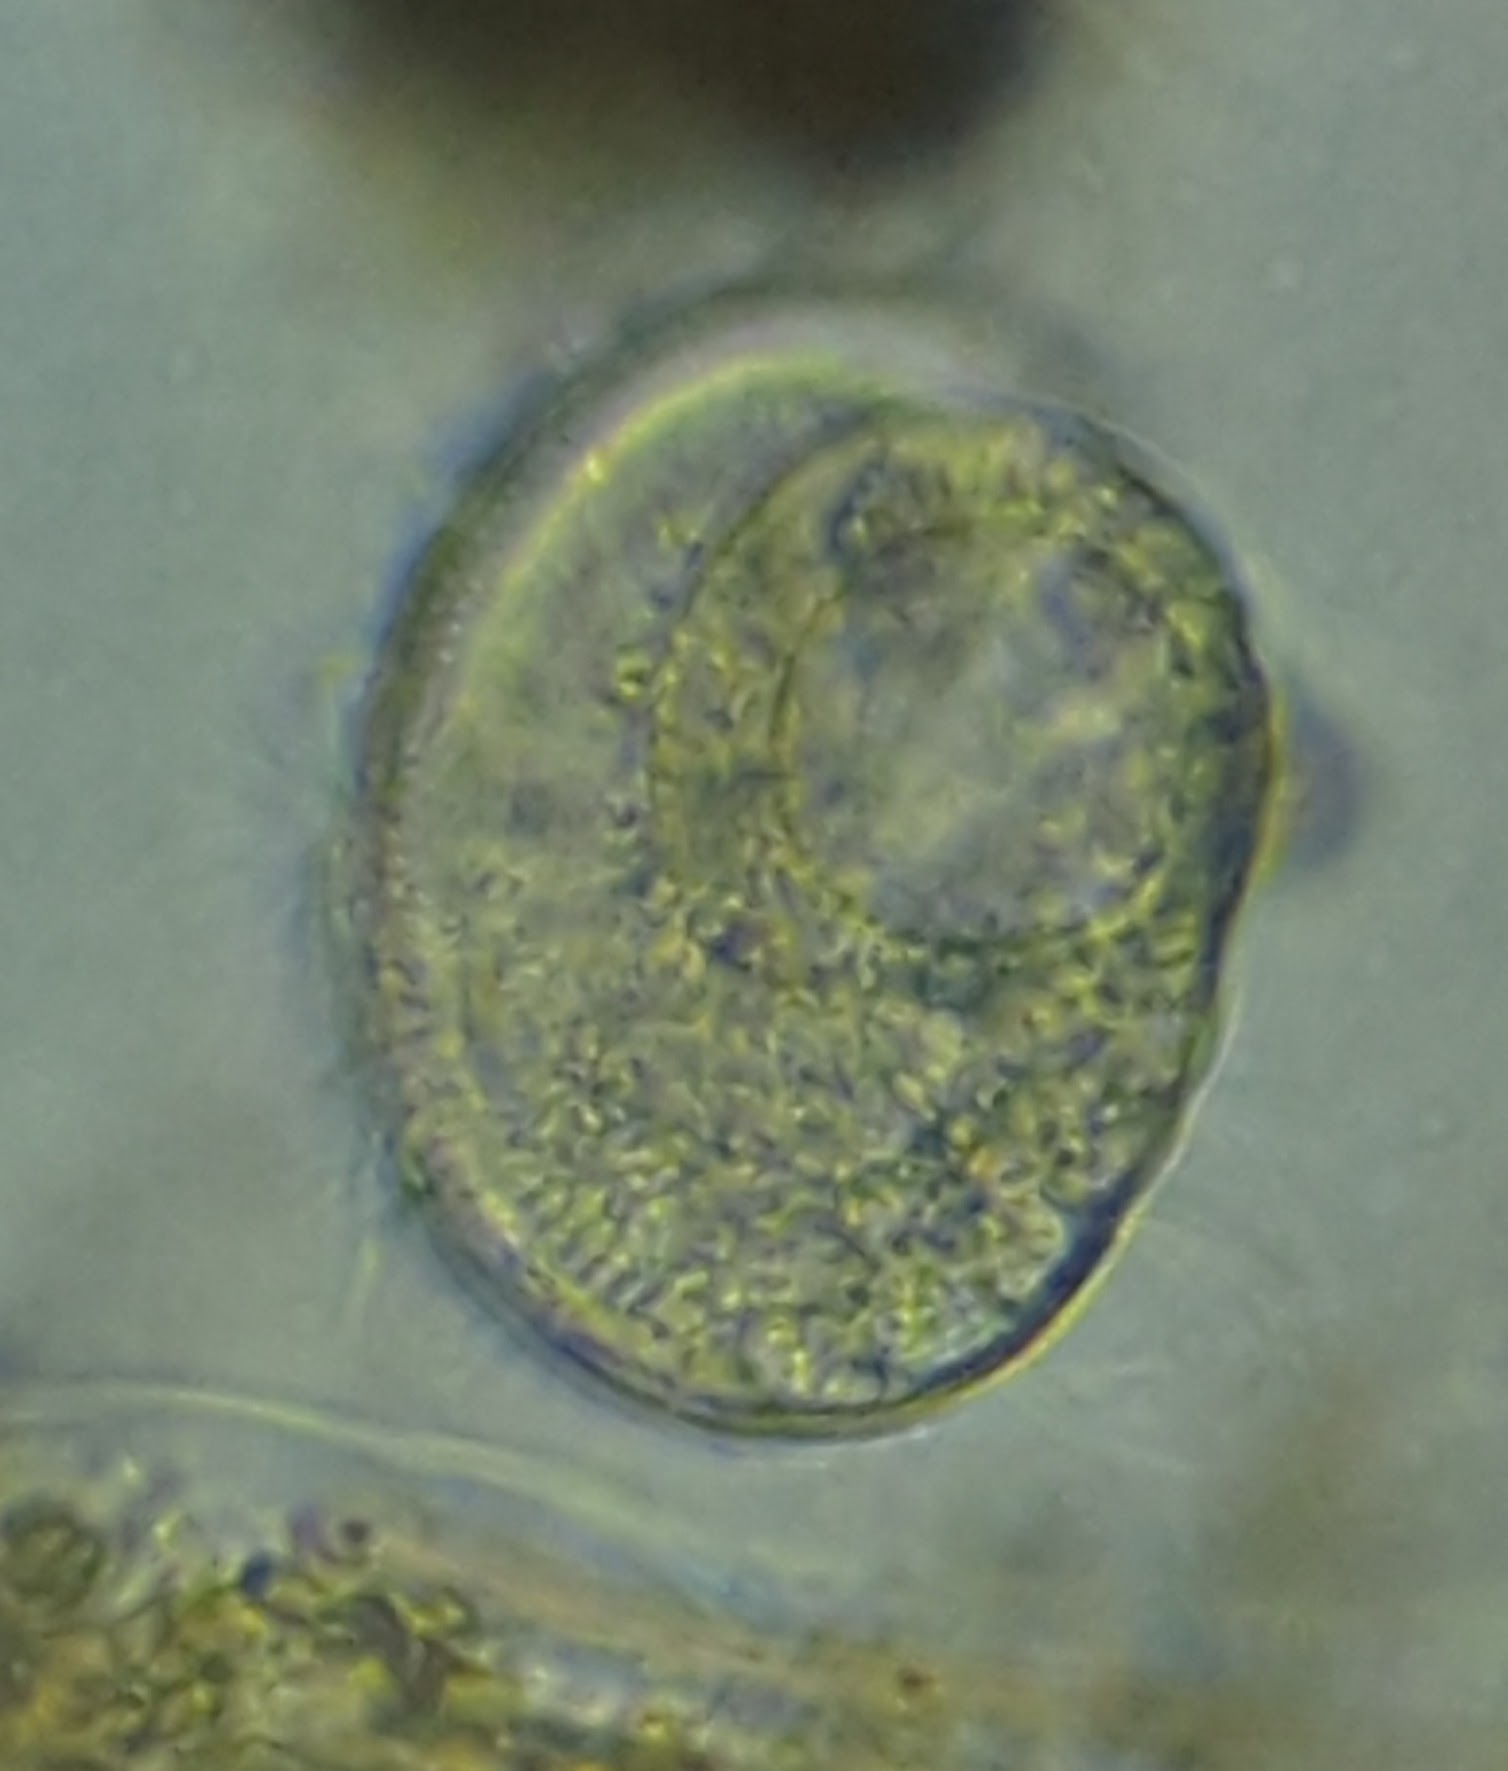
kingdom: Chromista
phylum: Ciliophora
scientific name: Ciliophora
